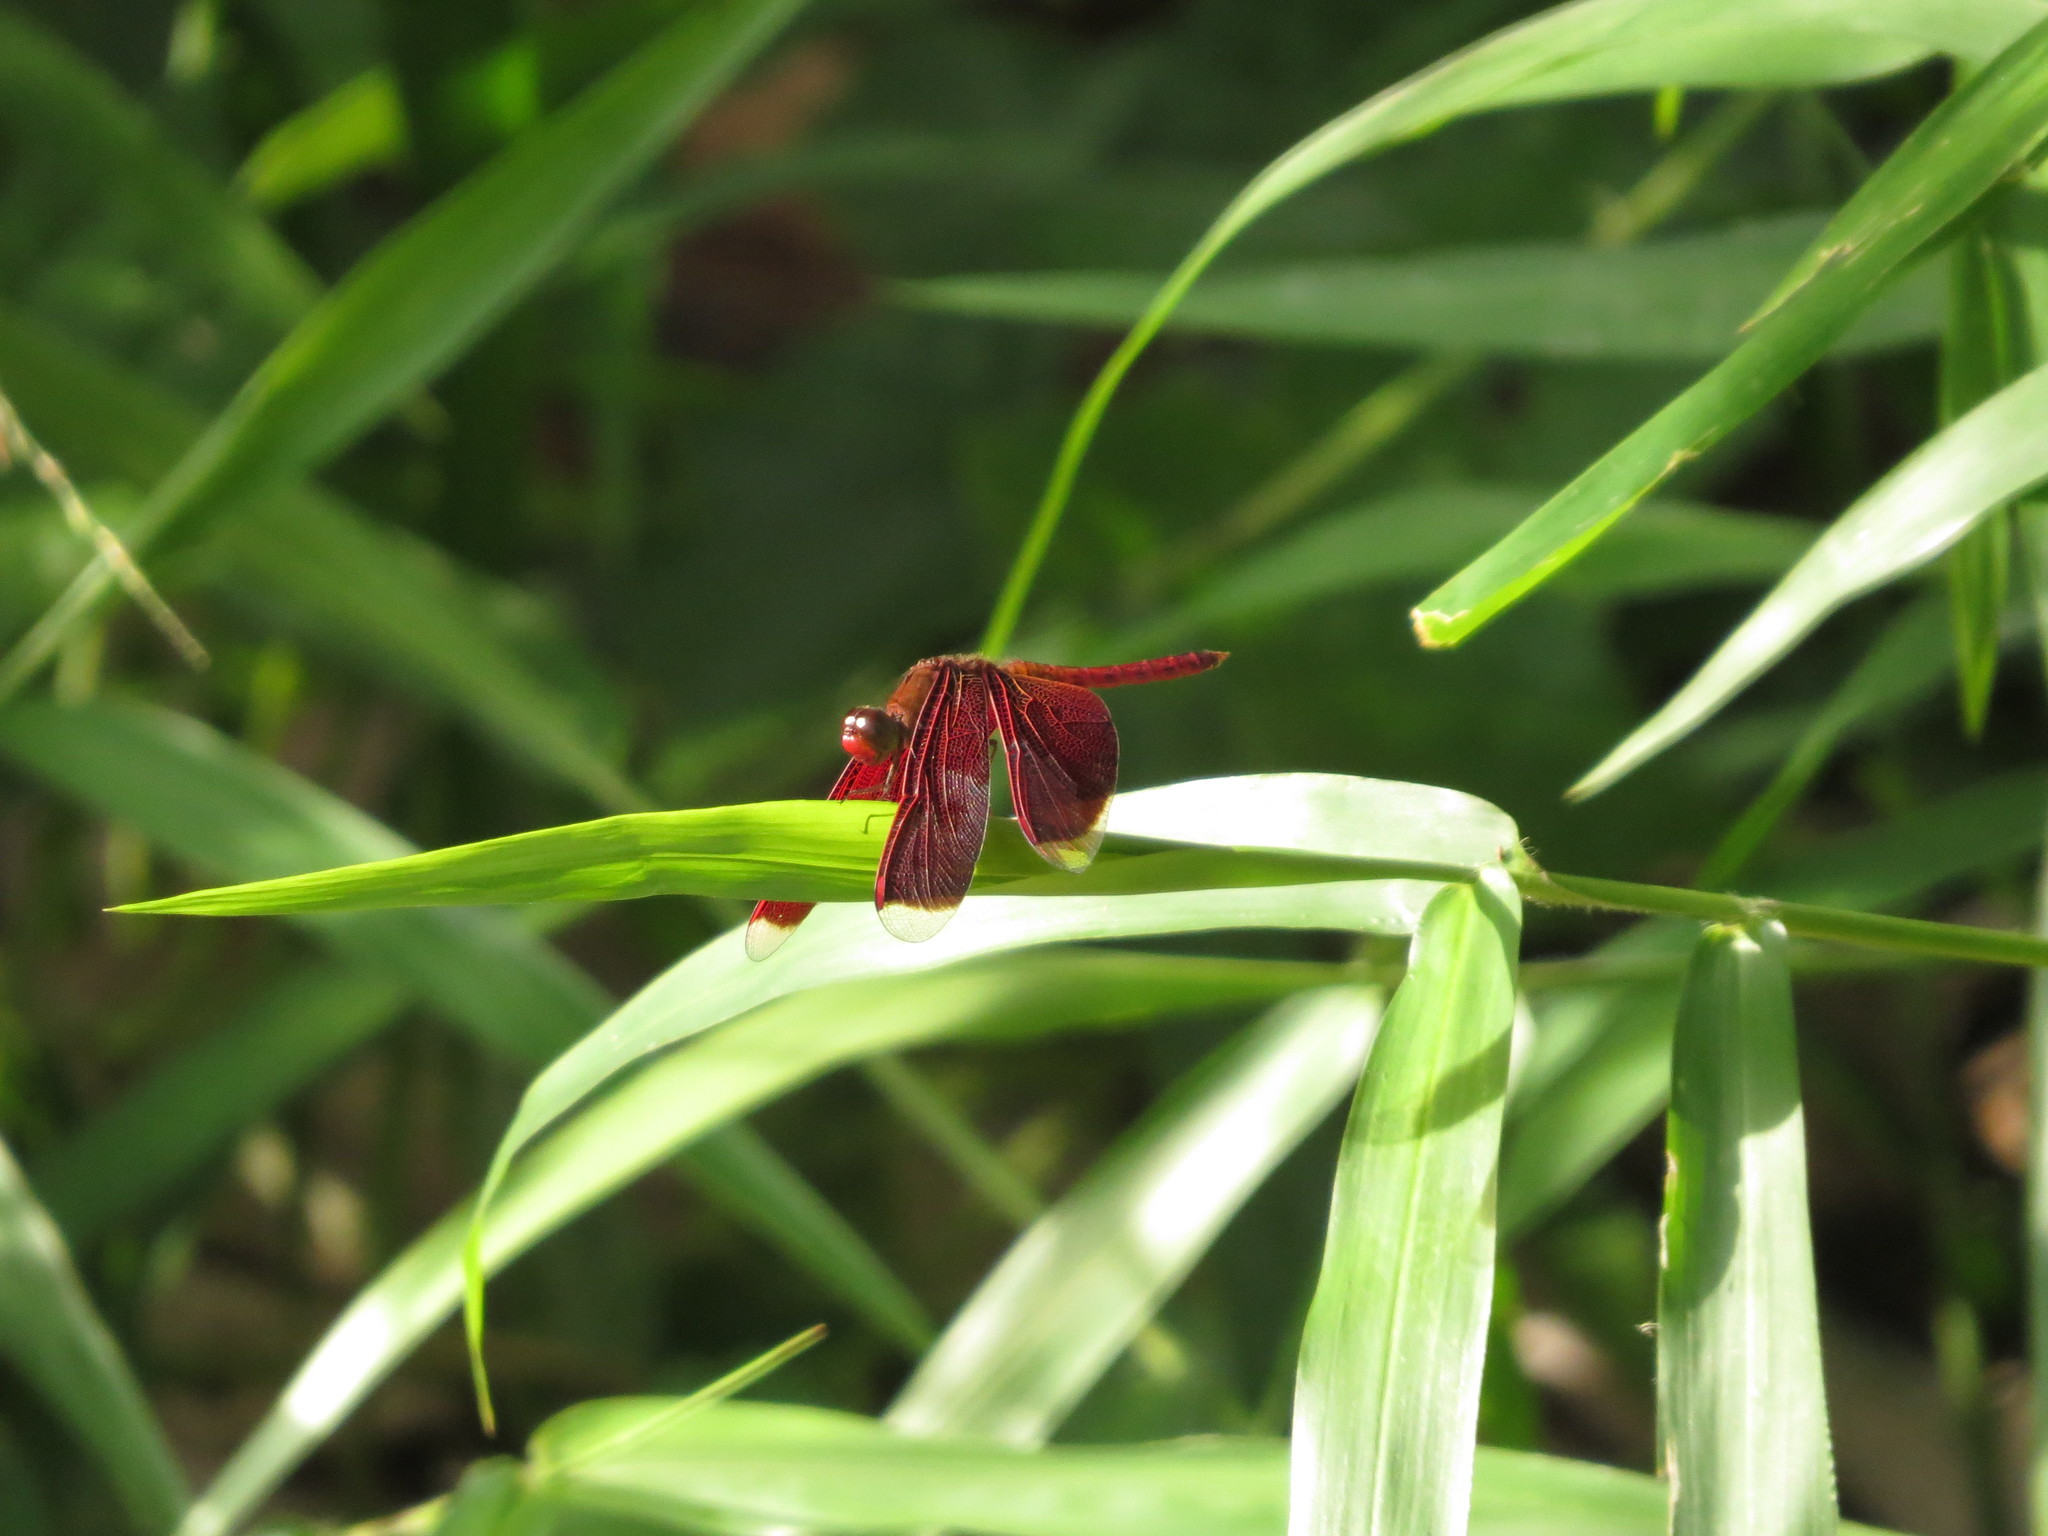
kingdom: Animalia
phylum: Arthropoda
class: Insecta
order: Odonata
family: Libellulidae
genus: Neurothemis
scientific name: Neurothemis fluctuans
